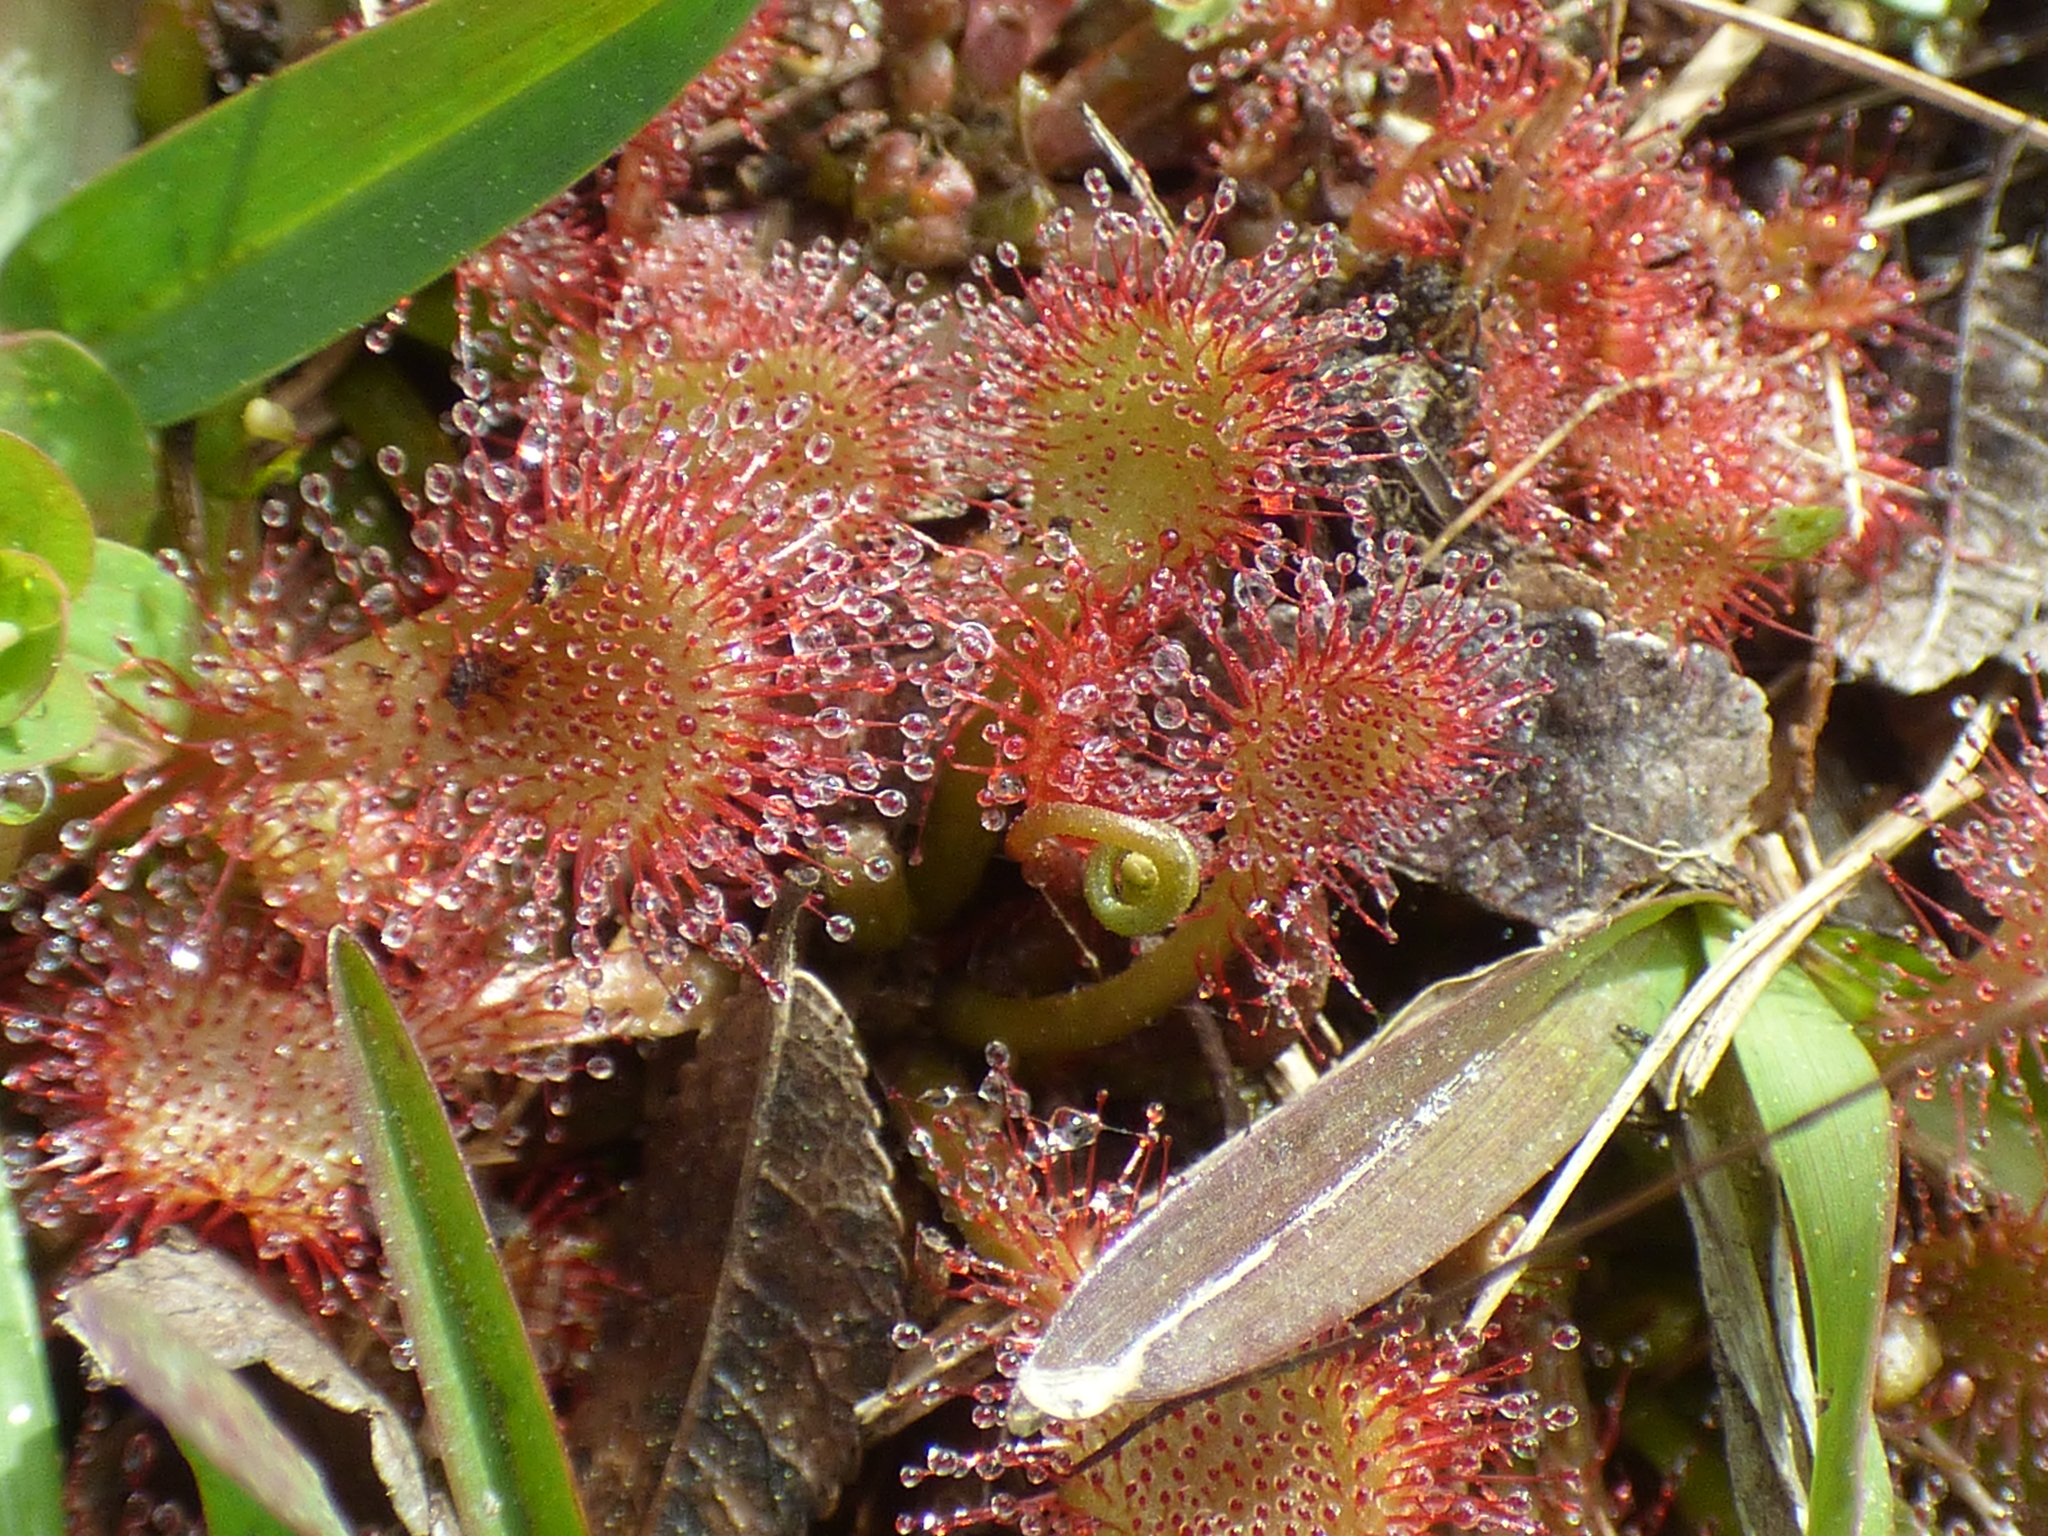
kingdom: Plantae
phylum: Tracheophyta
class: Magnoliopsida
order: Caryophyllales
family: Droseraceae
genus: Drosera
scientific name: Drosera capillaris
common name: Pink sundew
